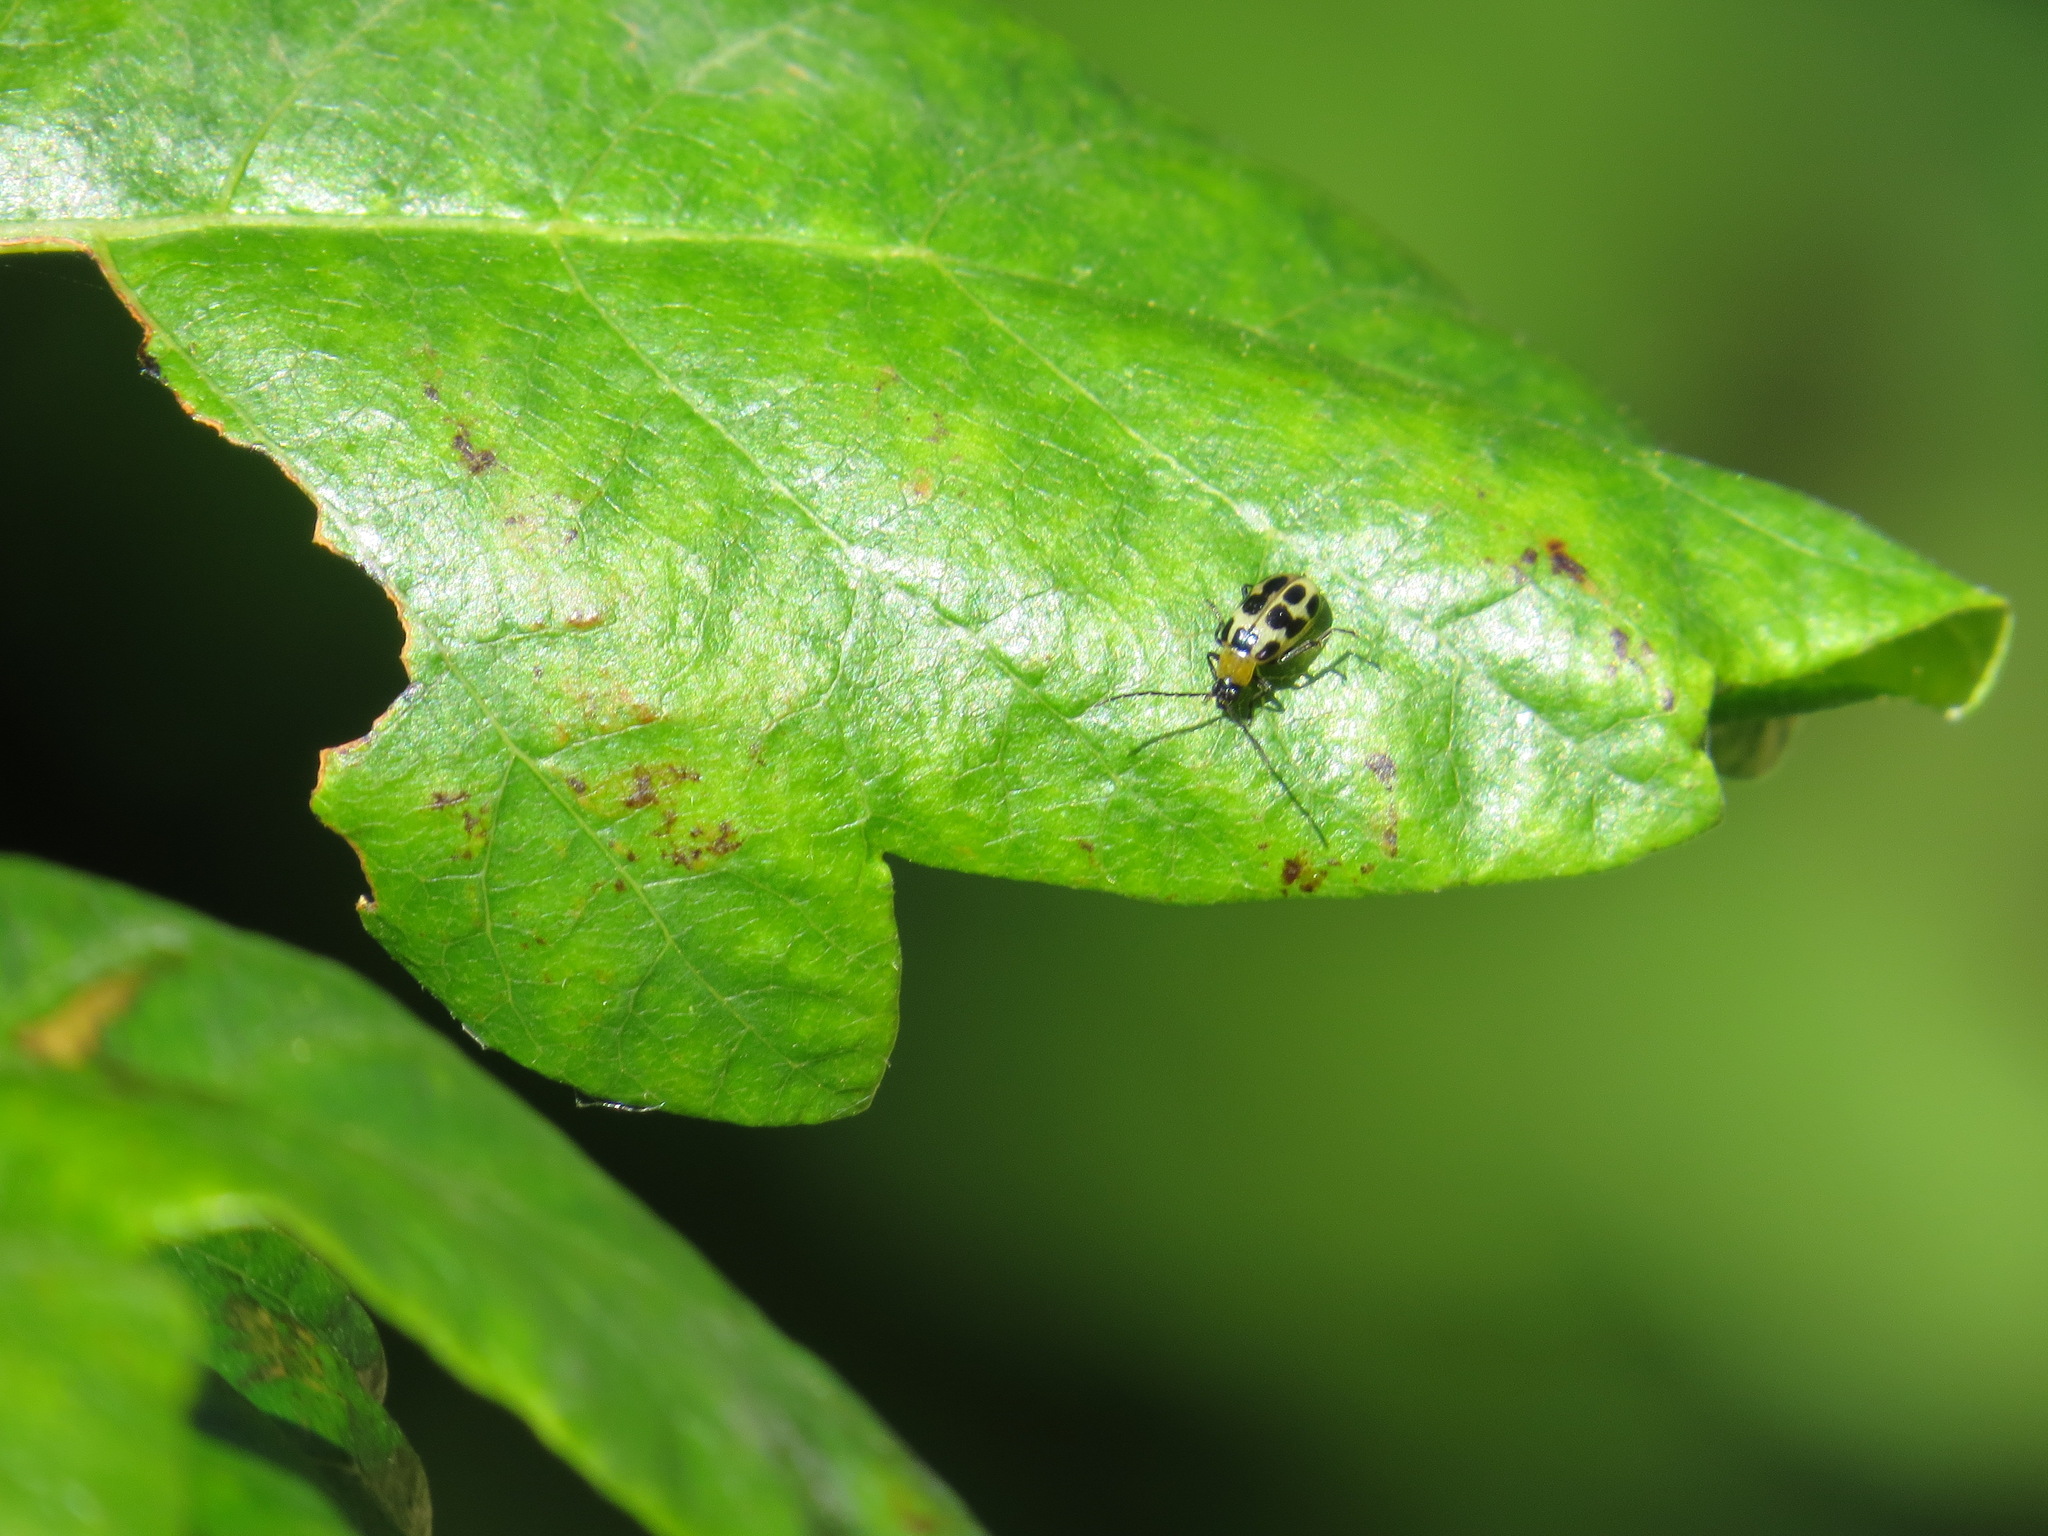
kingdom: Animalia
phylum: Arthropoda
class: Insecta
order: Coleoptera
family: Chrysomelidae
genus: Diabrotica
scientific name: Diabrotica undecimpunctata
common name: Spotted cucumber beetle
